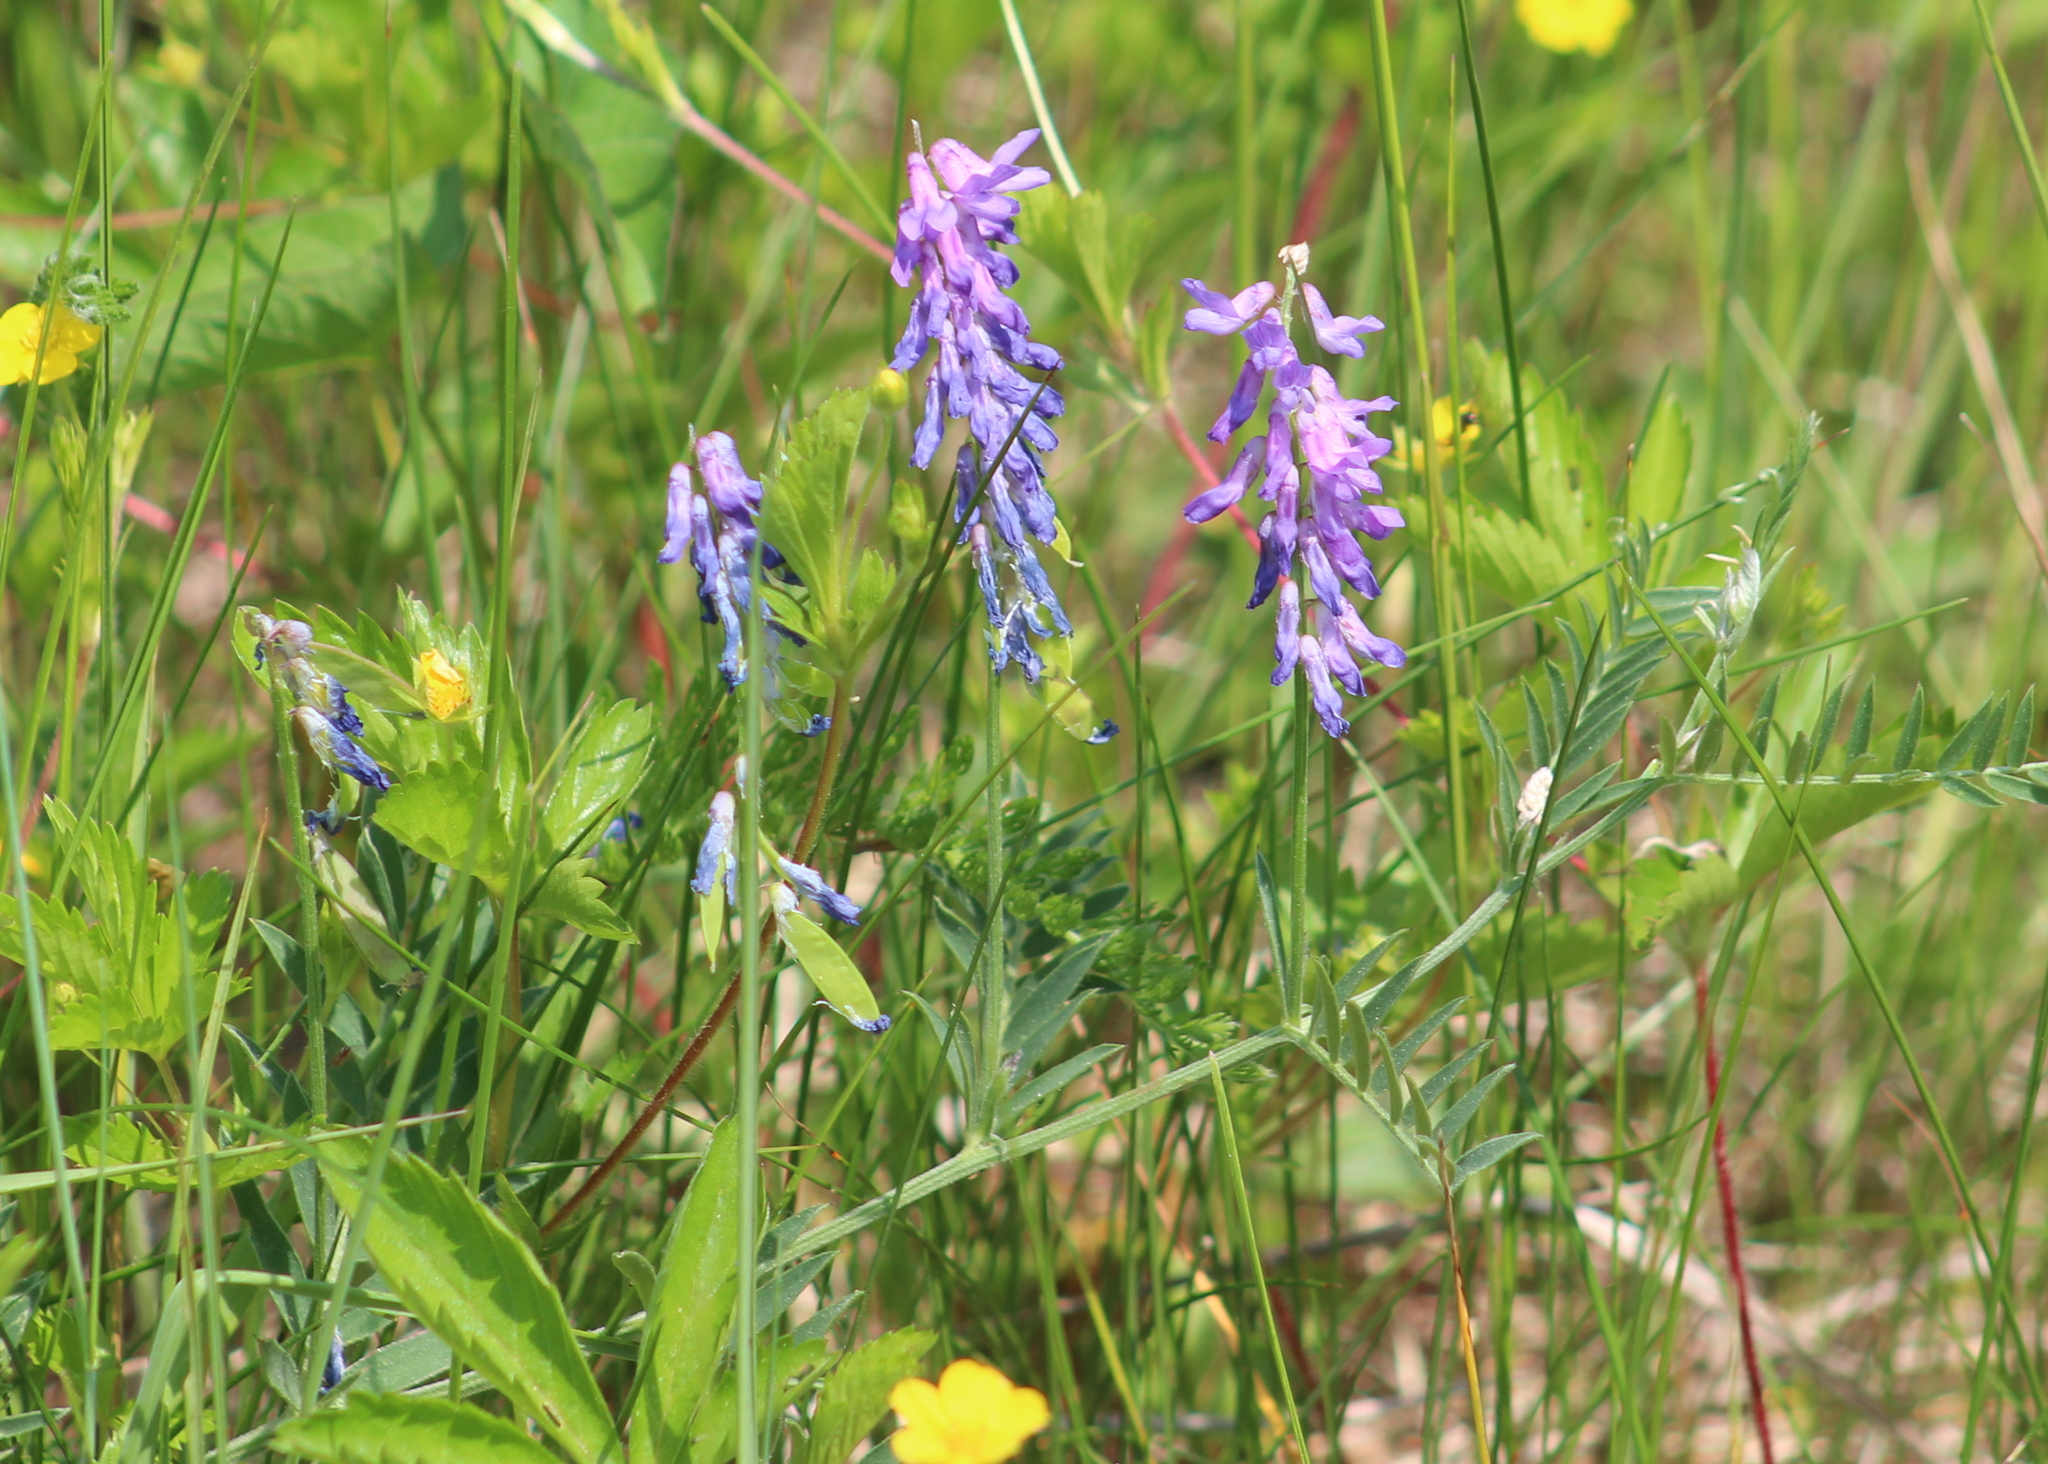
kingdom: Plantae
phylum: Tracheophyta
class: Magnoliopsida
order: Fabales
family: Fabaceae
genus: Vicia
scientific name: Vicia cracca
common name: Bird vetch
